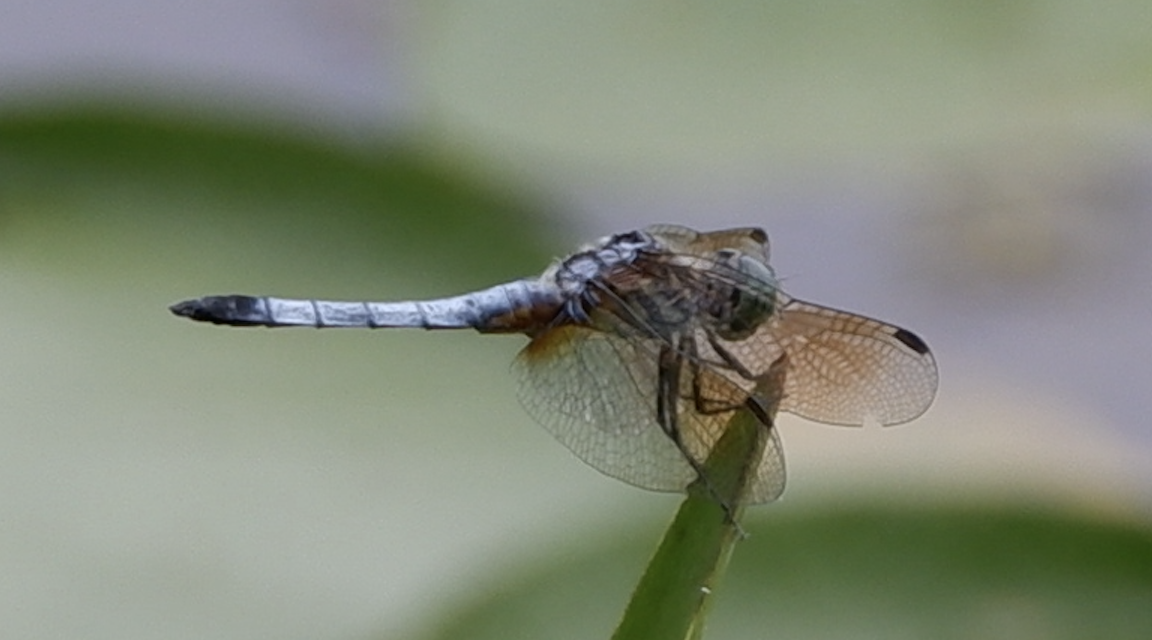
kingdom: Animalia
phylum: Arthropoda
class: Insecta
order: Odonata
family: Libellulidae
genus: Pachydiplax
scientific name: Pachydiplax longipennis
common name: Blue dasher
